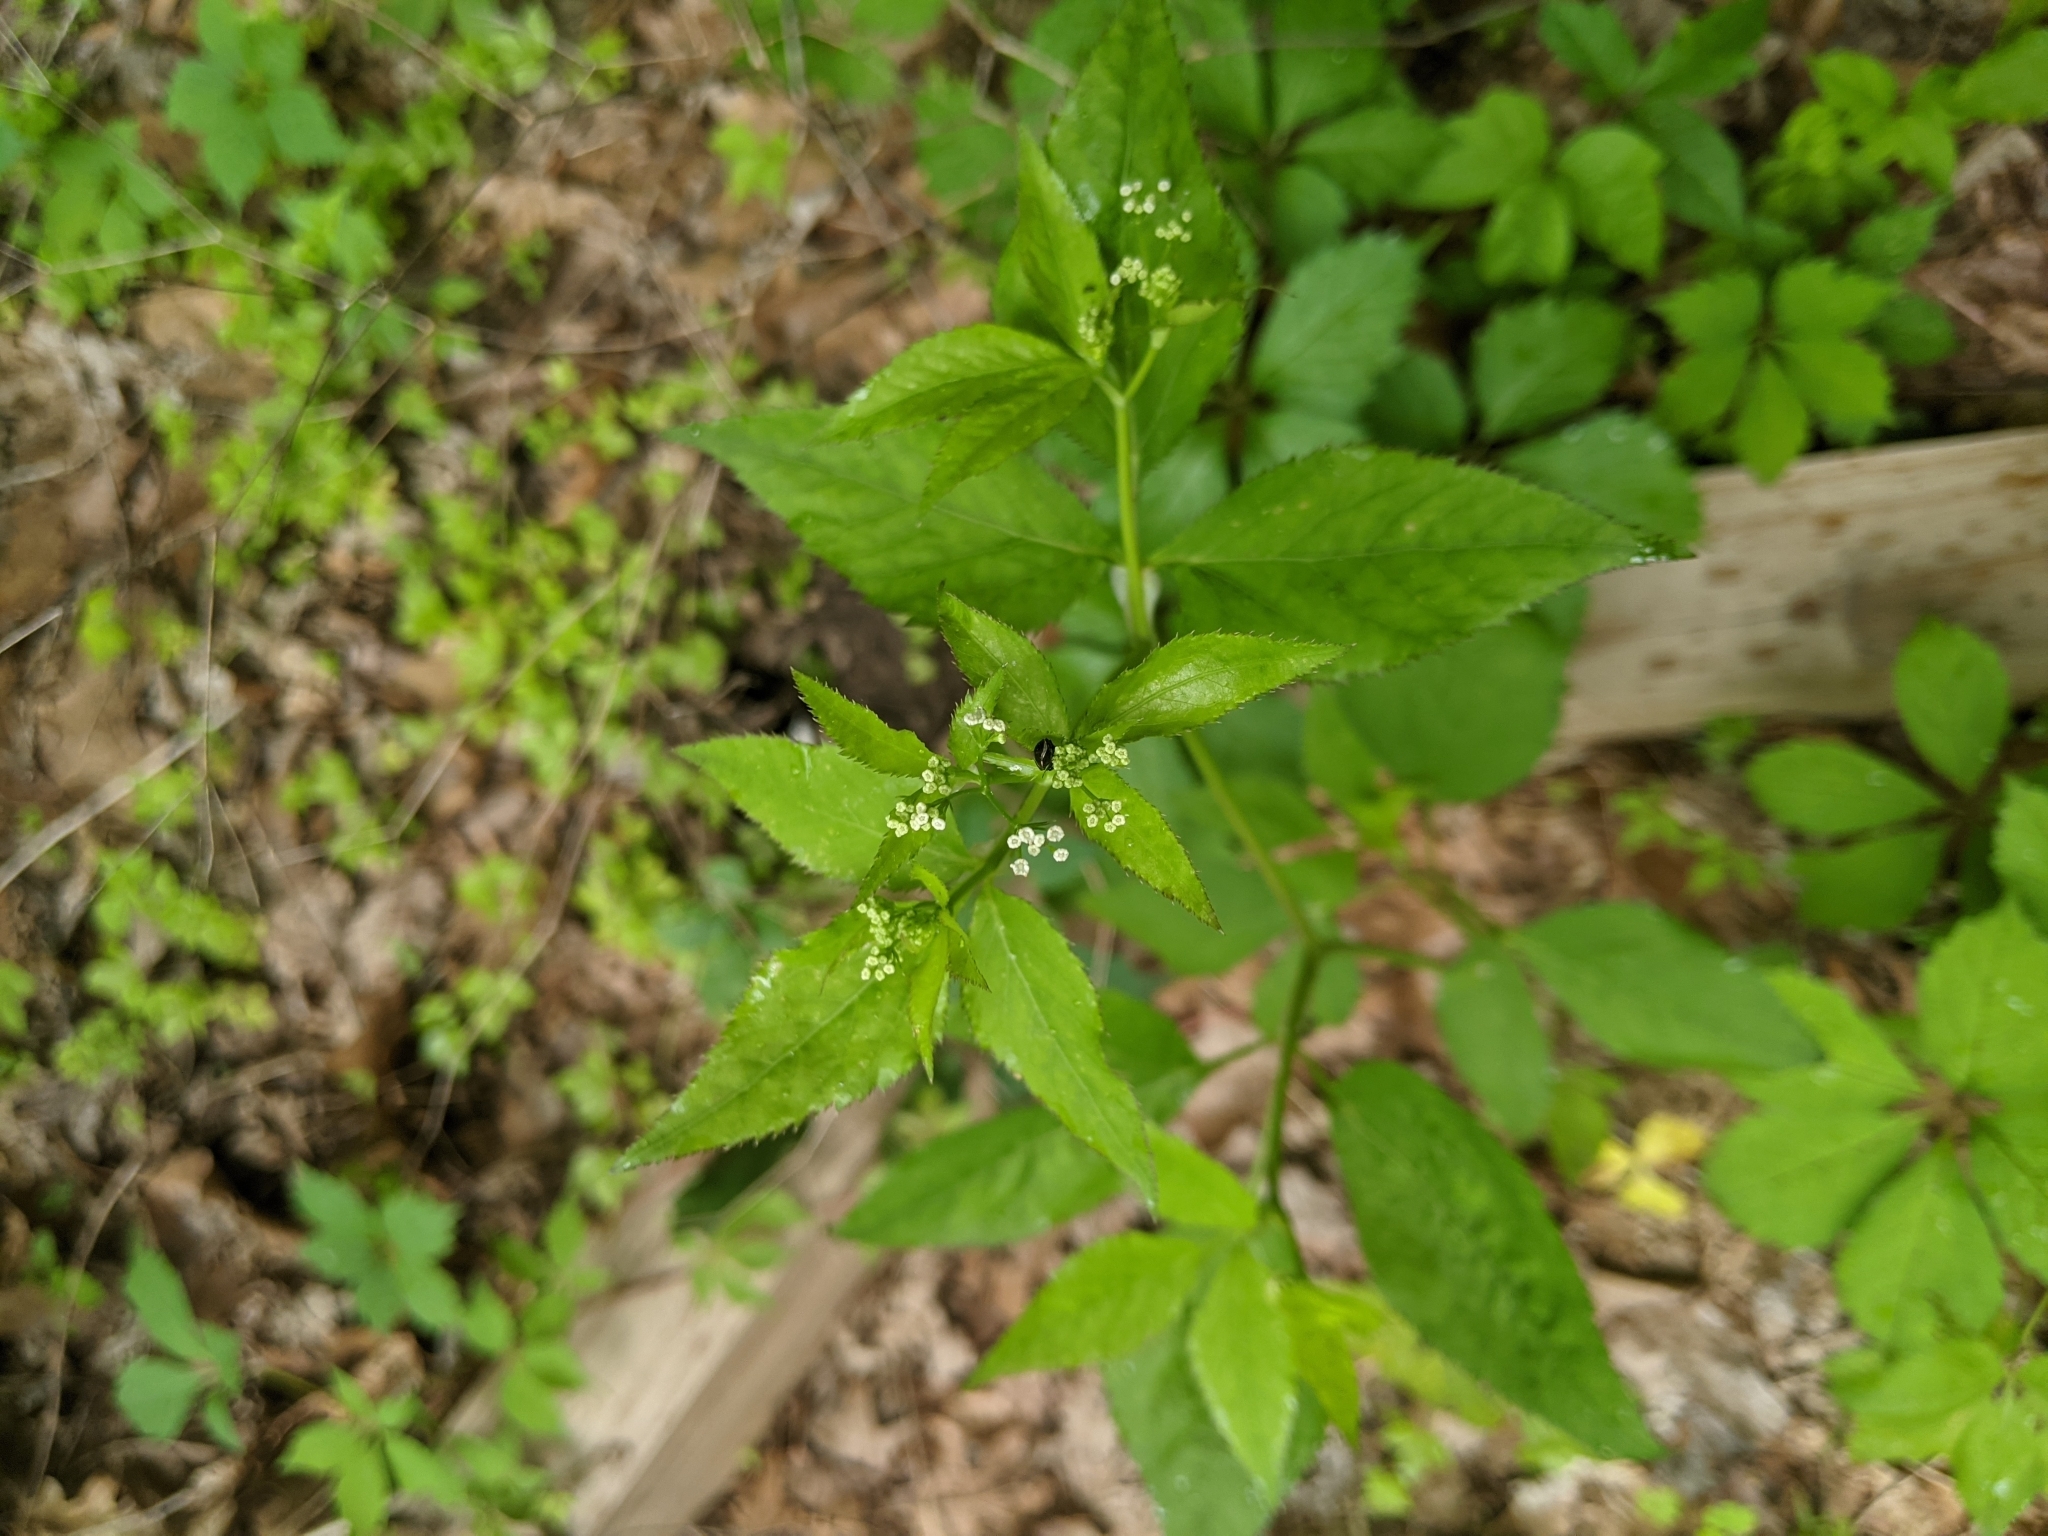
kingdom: Plantae
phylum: Tracheophyta
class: Magnoliopsida
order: Apiales
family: Apiaceae
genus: Cryptotaenia
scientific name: Cryptotaenia canadensis
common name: Honewort
